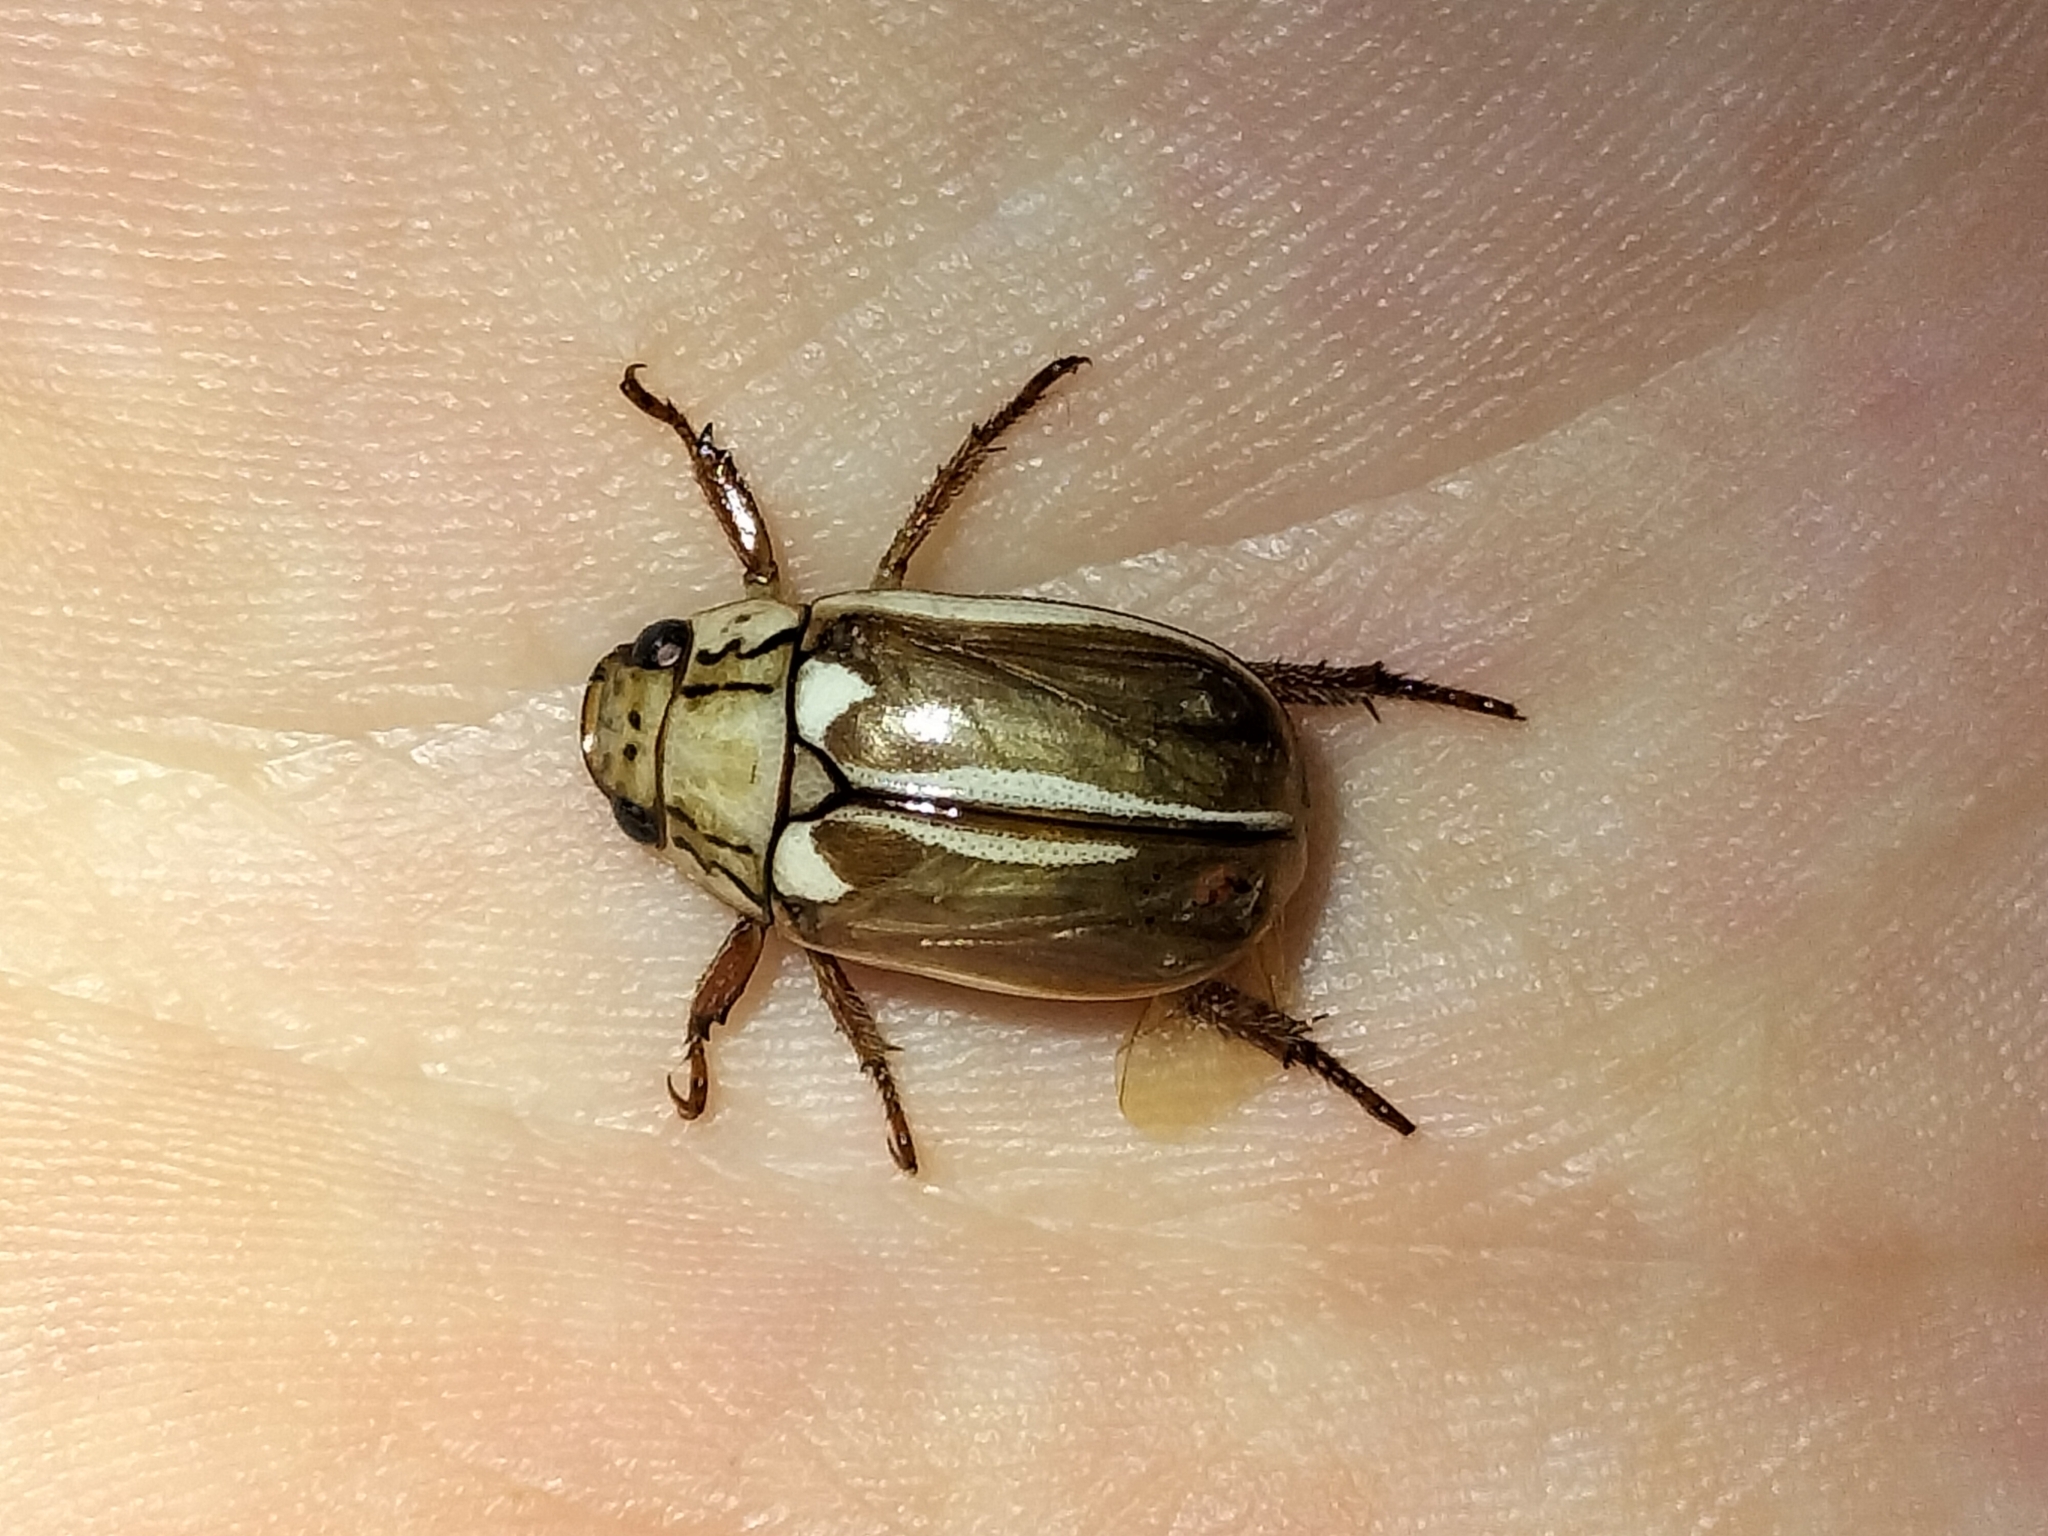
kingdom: Animalia
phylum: Arthropoda
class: Insecta
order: Coleoptera
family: Scarabaeidae
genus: Anoplognathus
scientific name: Anoplognathus abnormis
